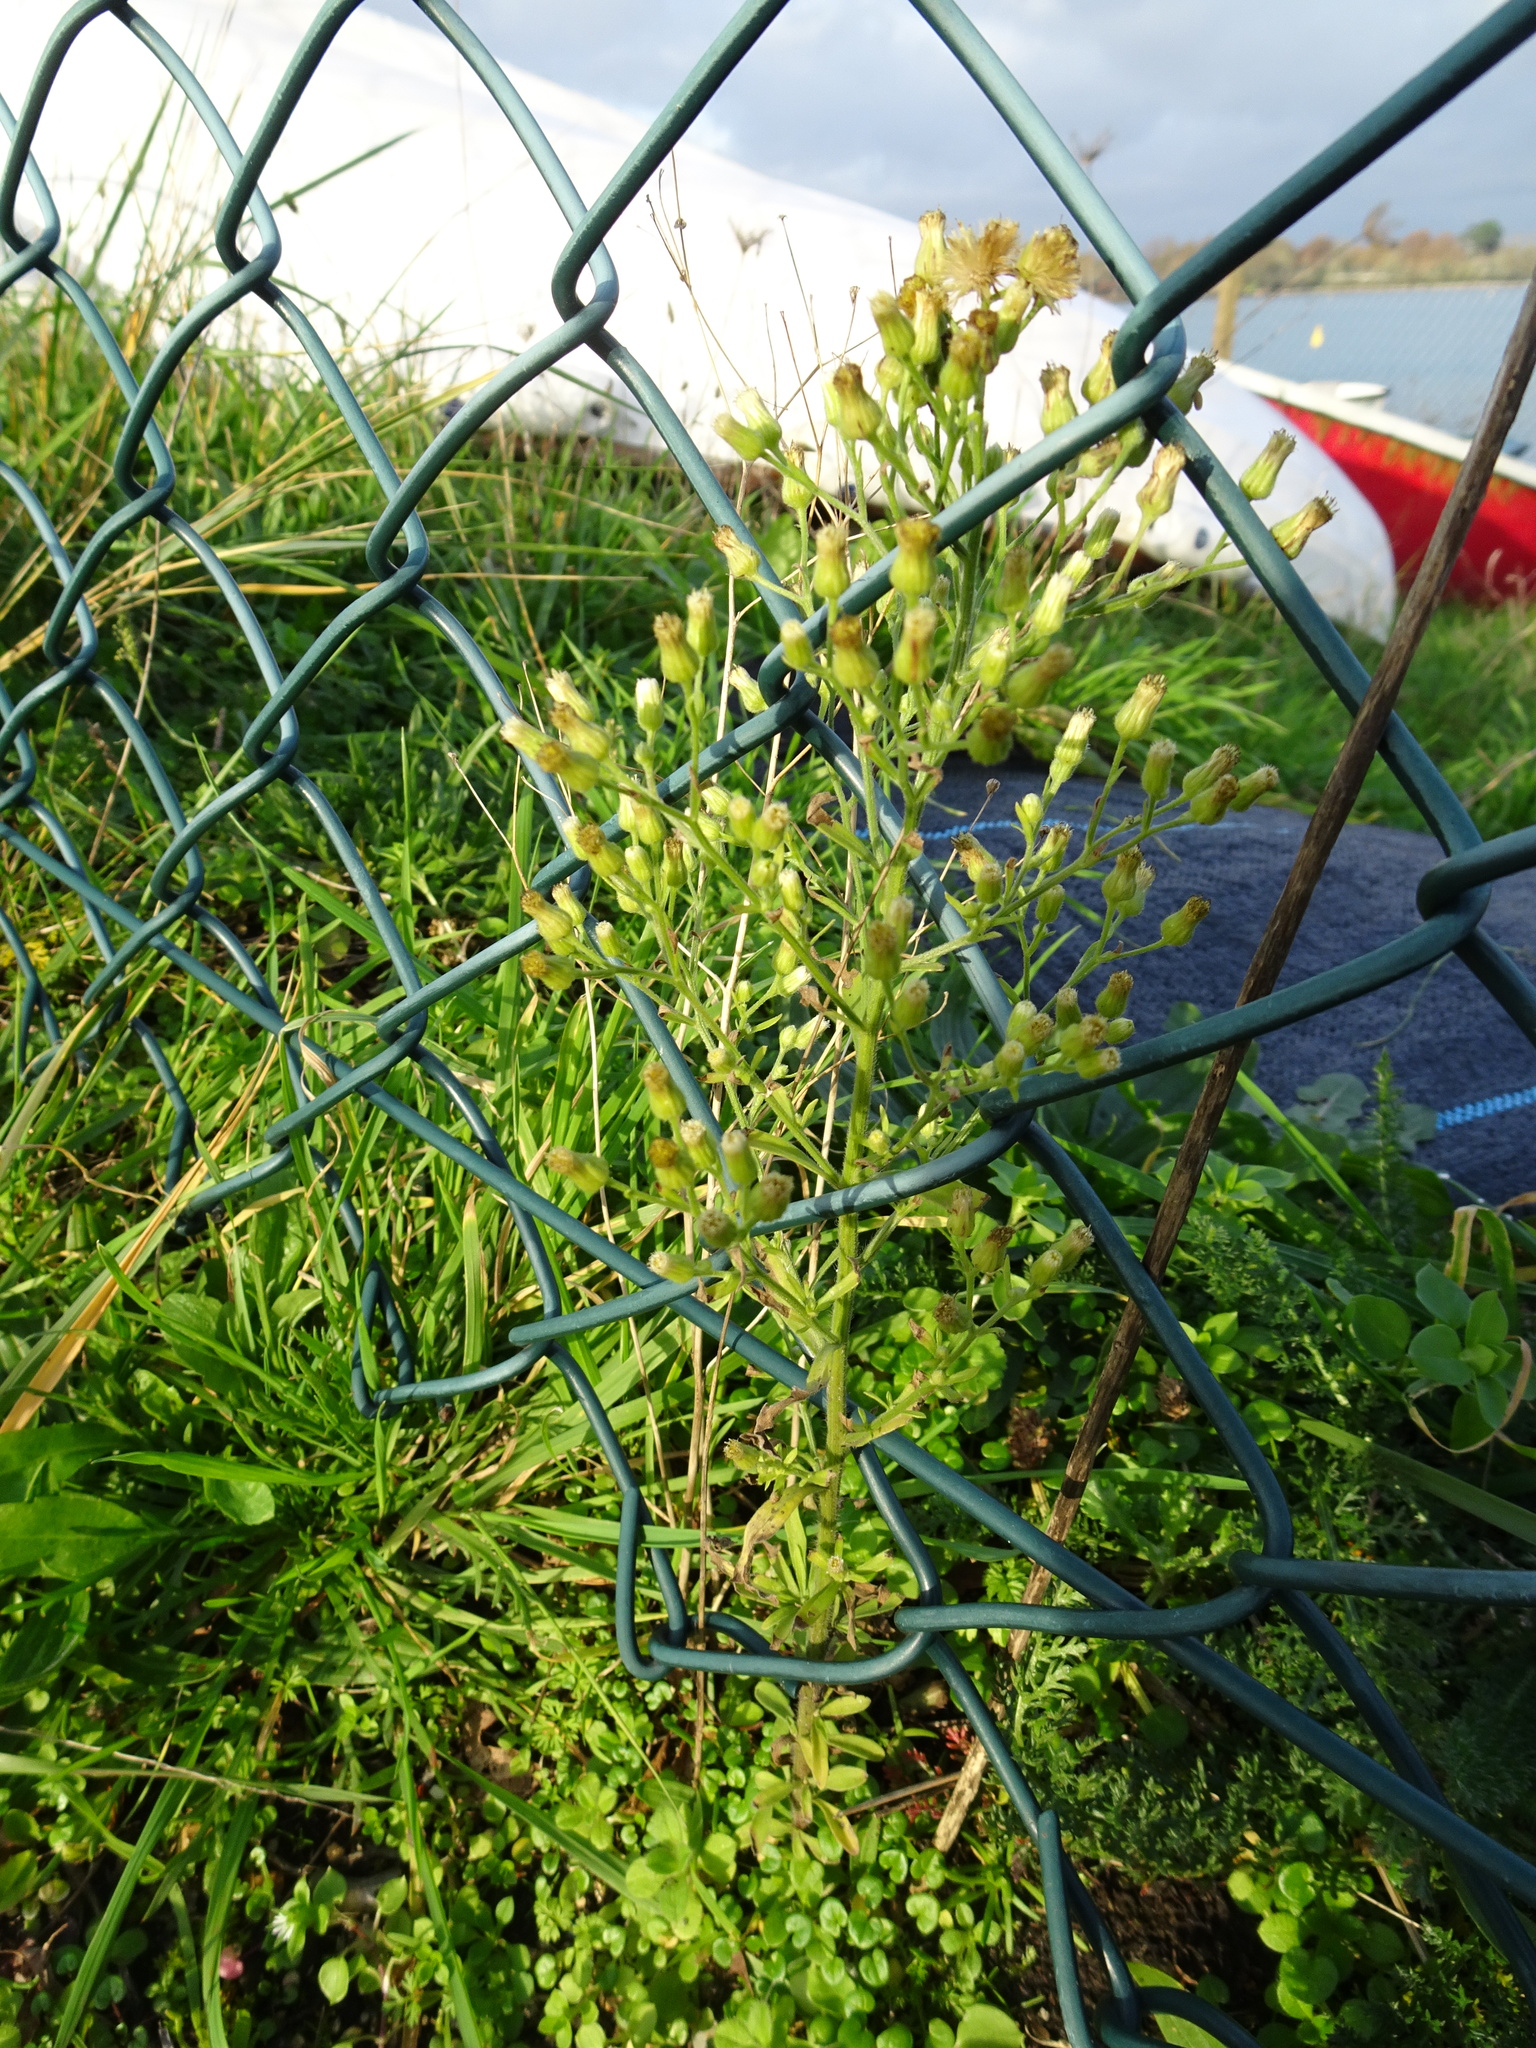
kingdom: Plantae
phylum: Tracheophyta
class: Magnoliopsida
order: Asterales
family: Asteraceae
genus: Erigeron
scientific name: Erigeron sumatrensis
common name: Daisy
